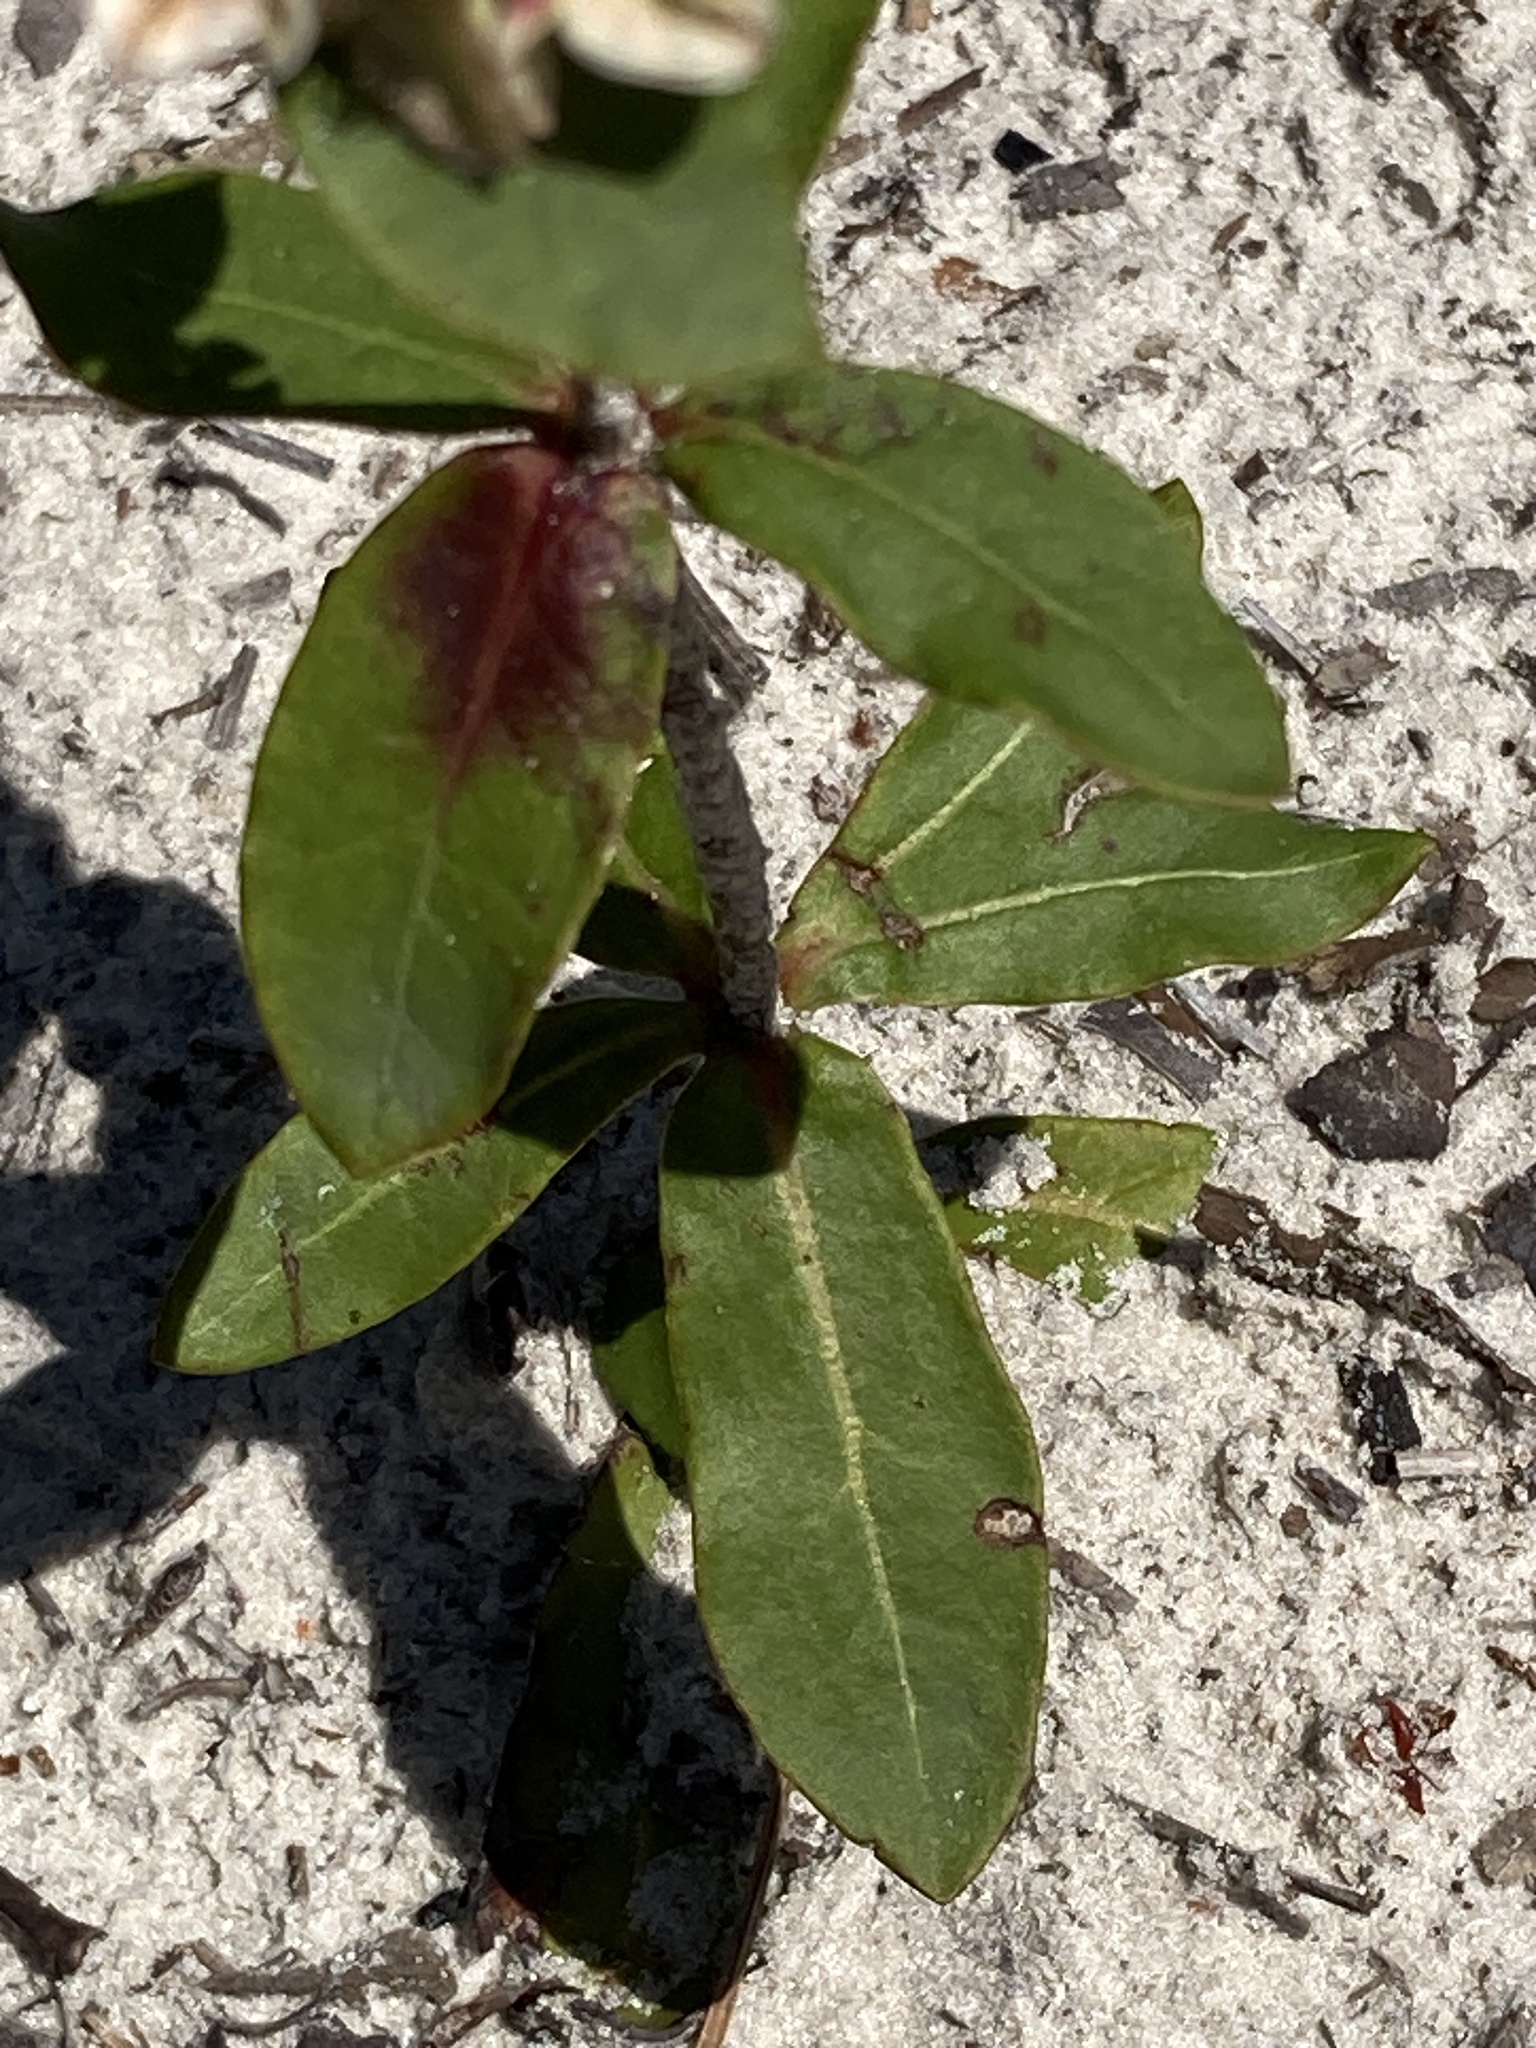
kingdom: Plantae
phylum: Tracheophyta
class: Magnoliopsida
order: Caryophyllales
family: Polygonaceae
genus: Eriogonum
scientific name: Eriogonum tomentosum
